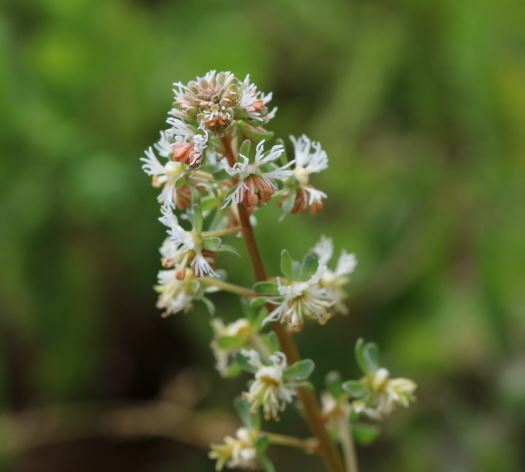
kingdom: Plantae
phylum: Tracheophyta
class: Magnoliopsida
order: Brassicales
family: Resedaceae
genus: Reseda
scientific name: Reseda phyteuma
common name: Corn mignonette
